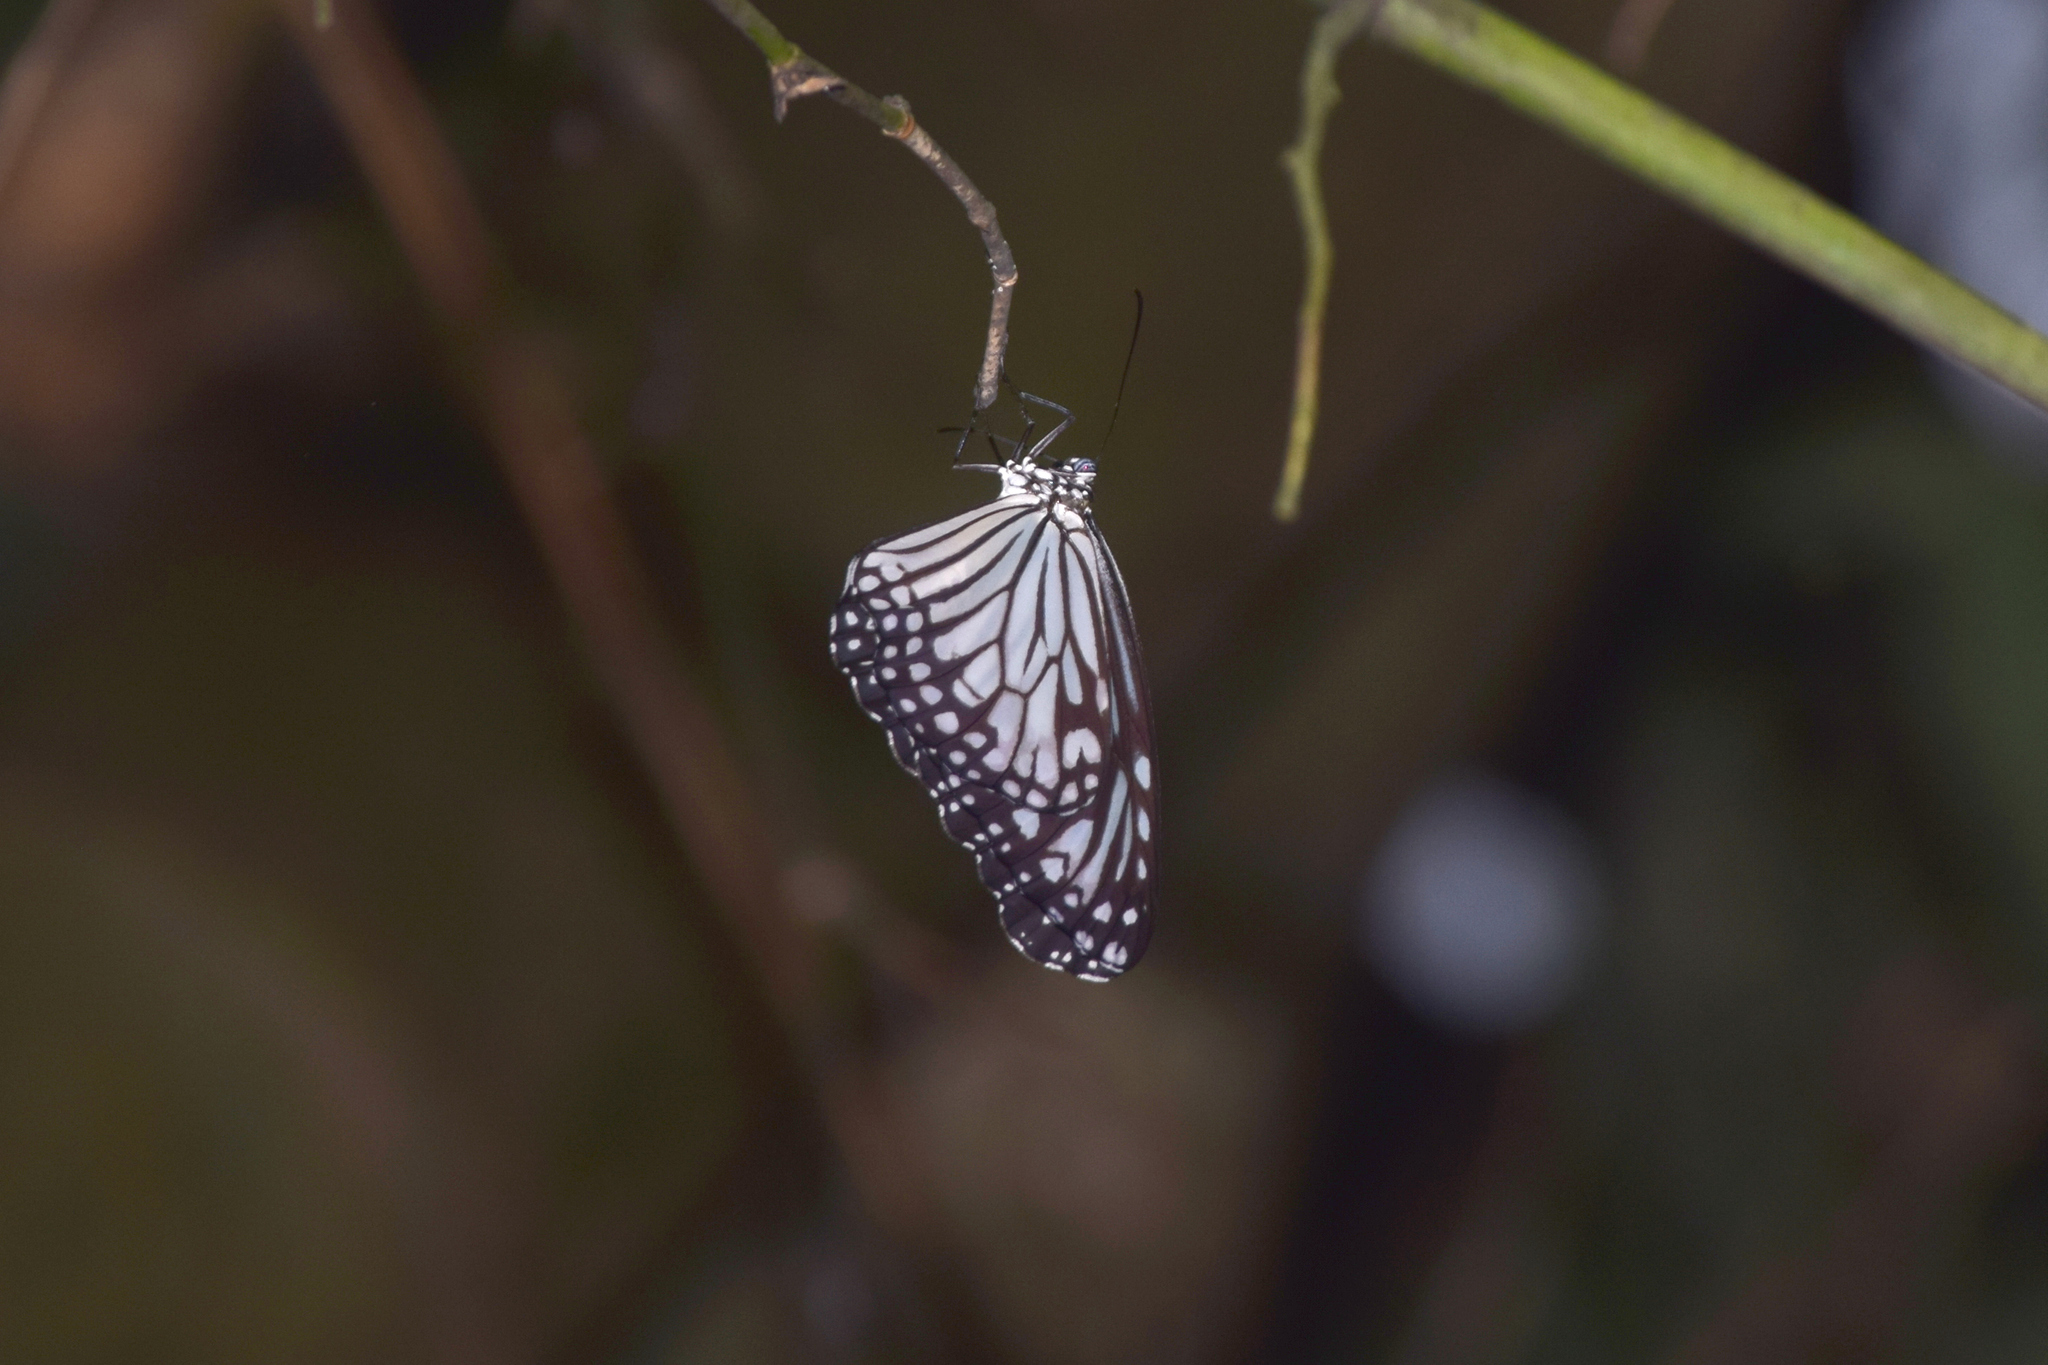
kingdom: Animalia
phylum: Arthropoda
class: Insecta
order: Lepidoptera
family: Nymphalidae
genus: Parantica
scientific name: Parantica aglea
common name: Glassy tiger
